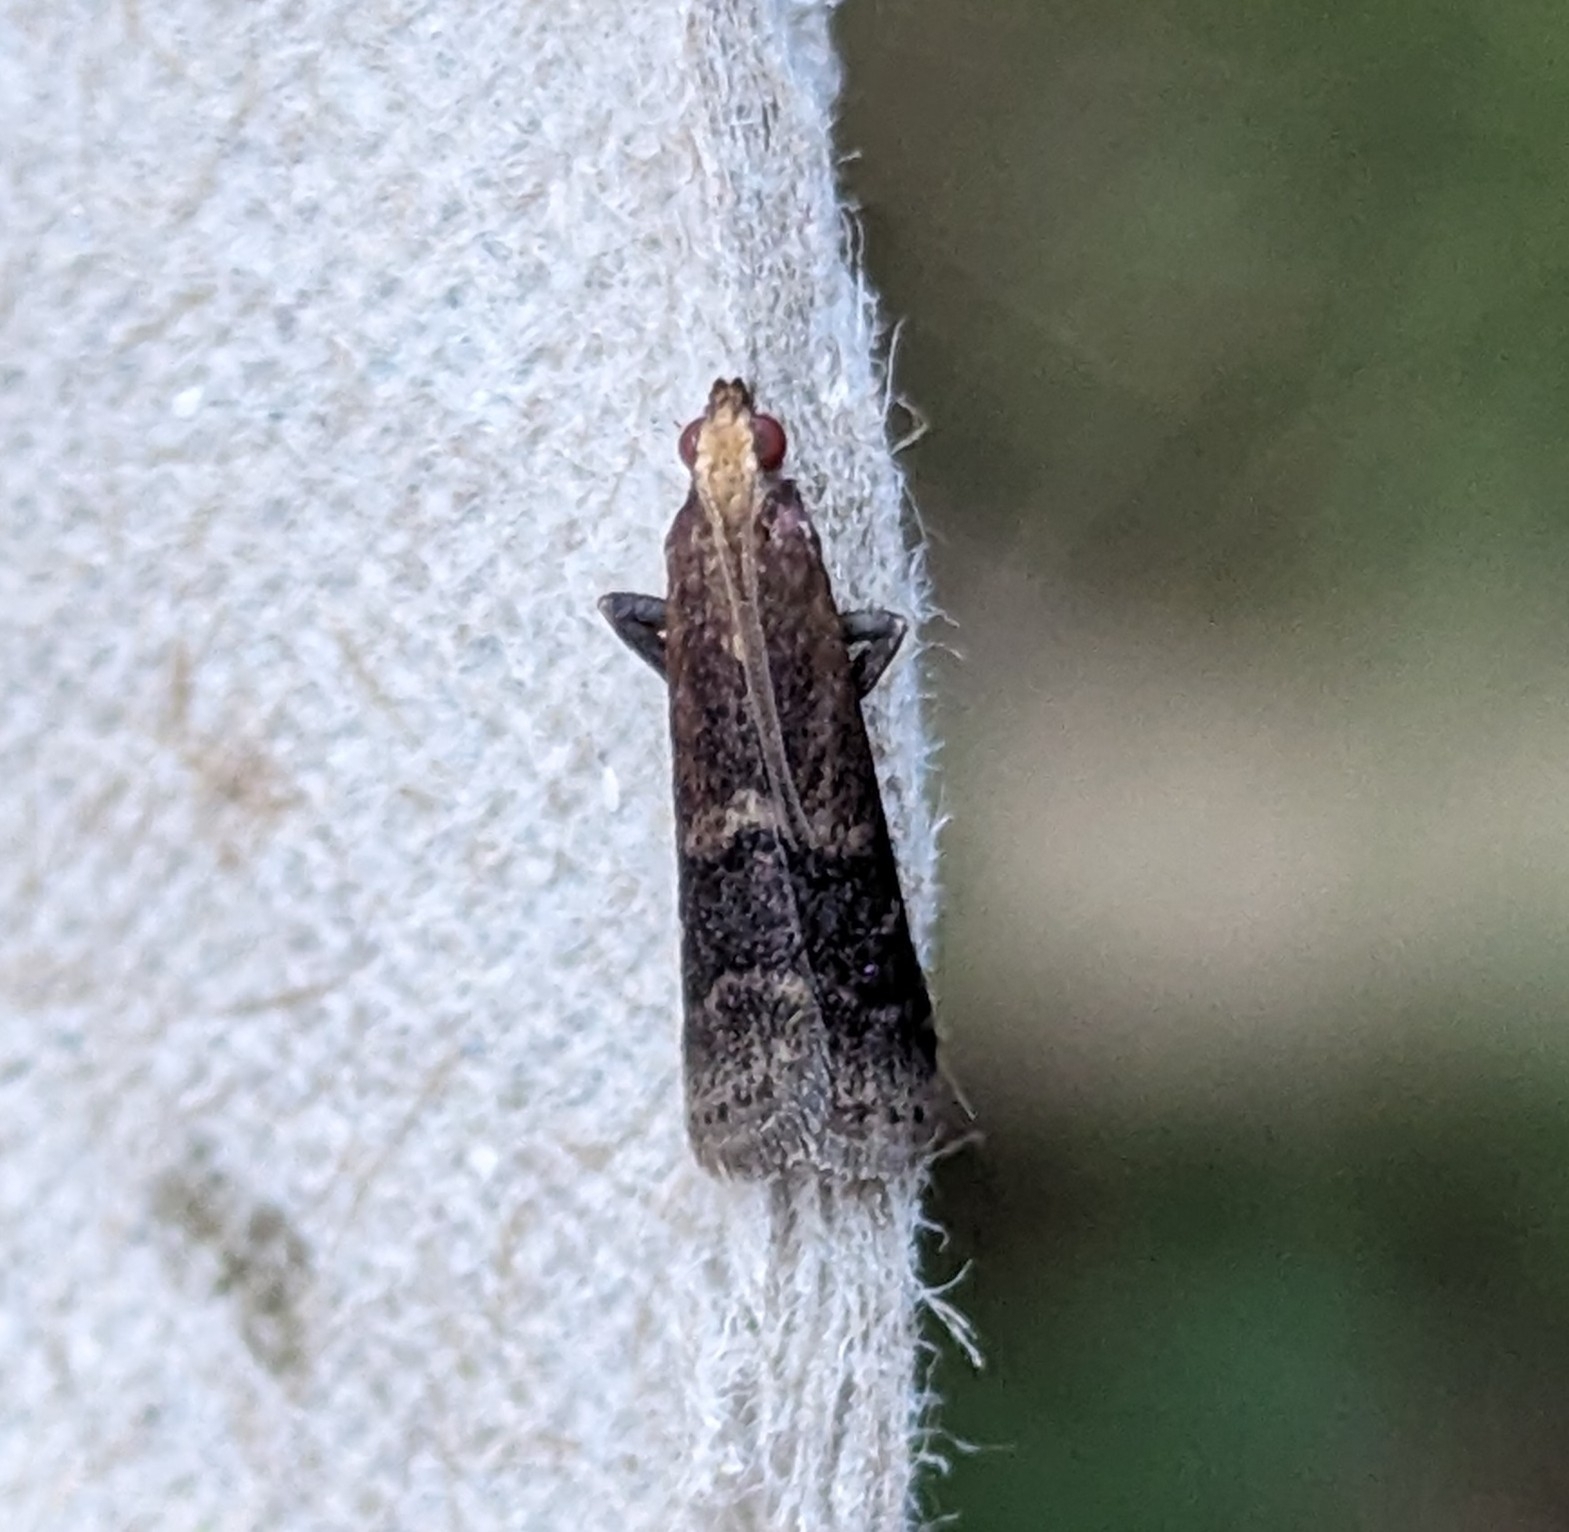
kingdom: Animalia
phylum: Arthropoda
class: Insecta
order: Lepidoptera
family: Pyralidae
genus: Eulogia
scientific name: Eulogia ochrifrontella
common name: Broad-banded eulogia moth
